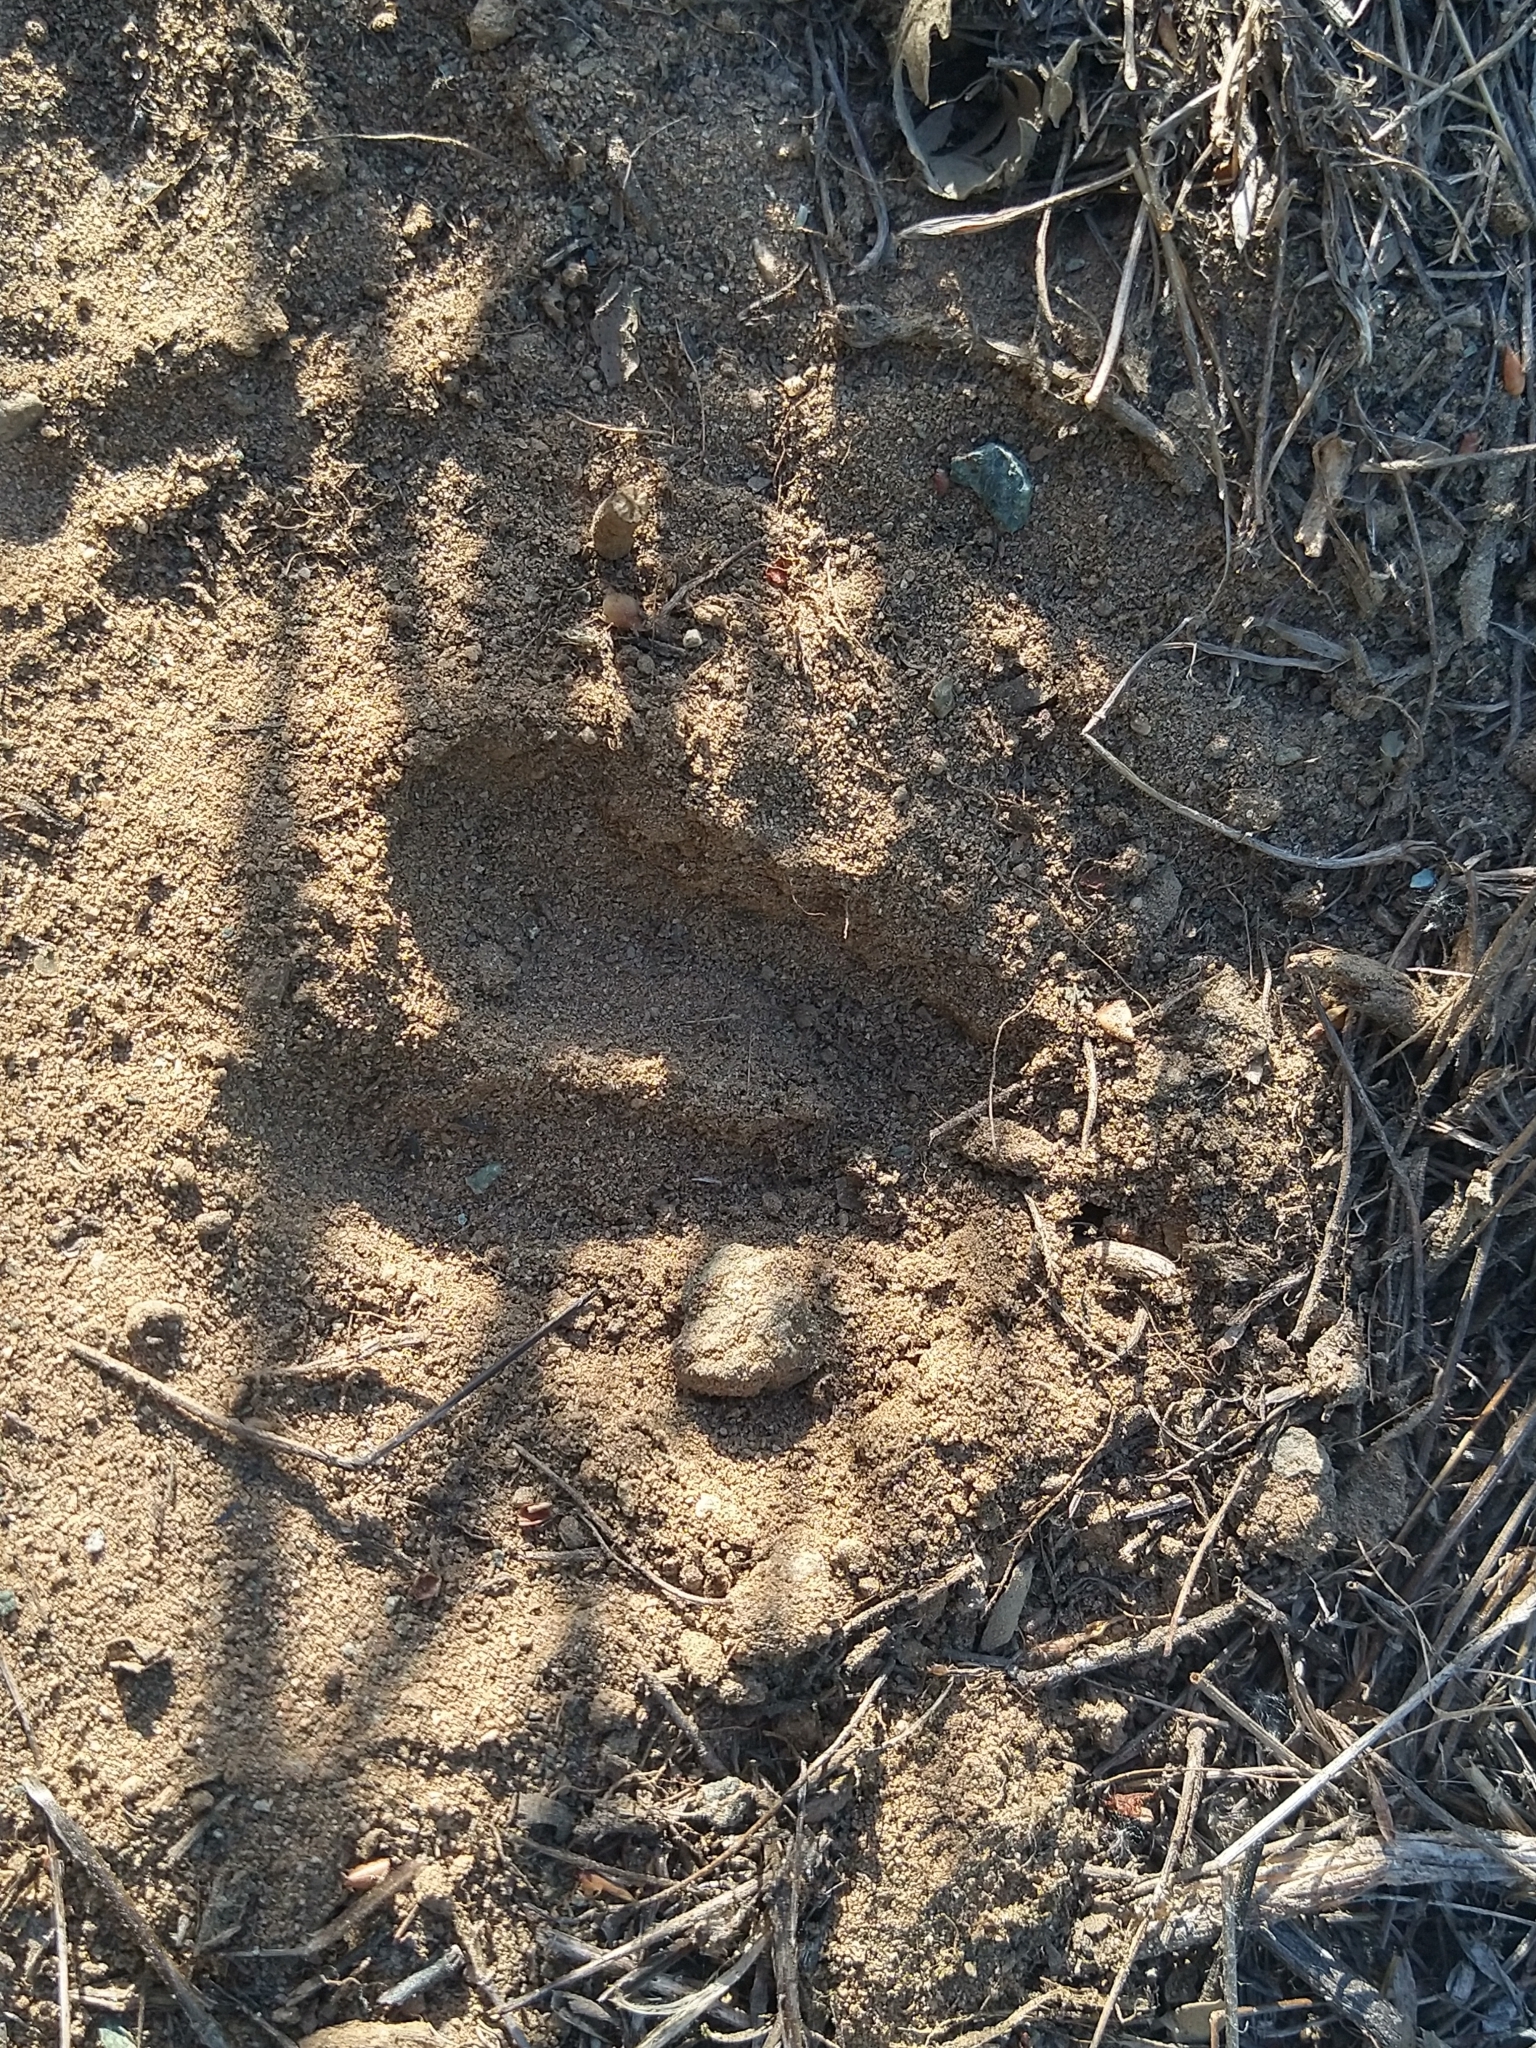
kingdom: Animalia
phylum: Chordata
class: Mammalia
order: Artiodactyla
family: Cervidae
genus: Odocoileus
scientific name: Odocoileus hemionus
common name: Mule deer
